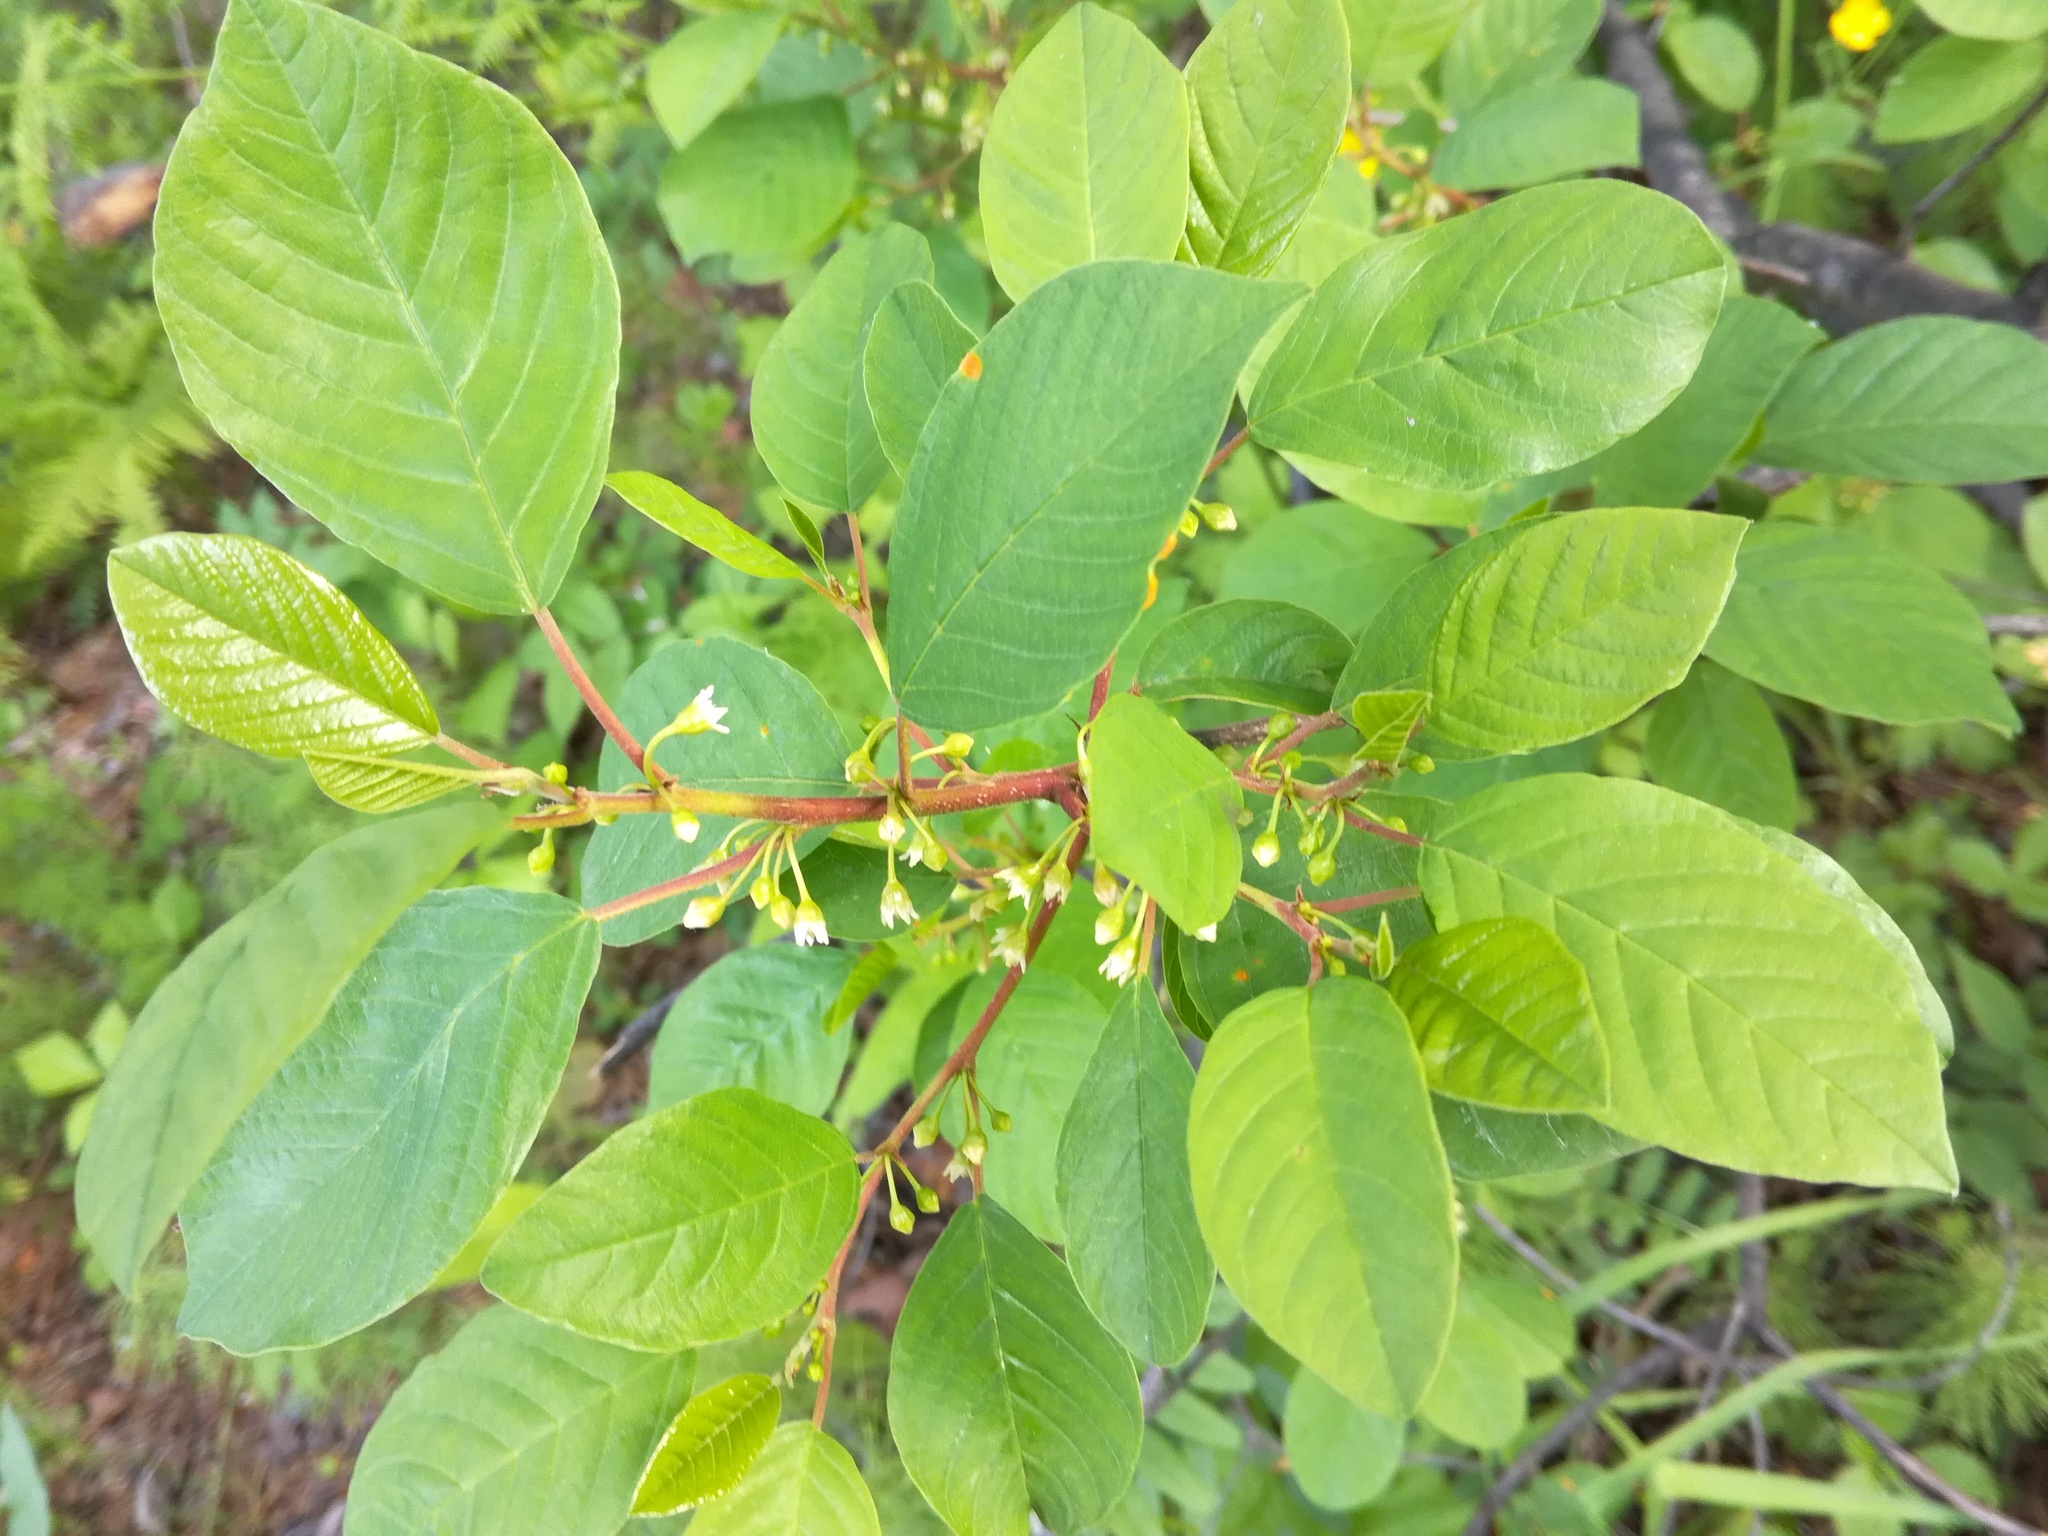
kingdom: Plantae
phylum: Tracheophyta
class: Magnoliopsida
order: Rosales
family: Rhamnaceae
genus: Frangula
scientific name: Frangula alnus
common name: Alder buckthorn
